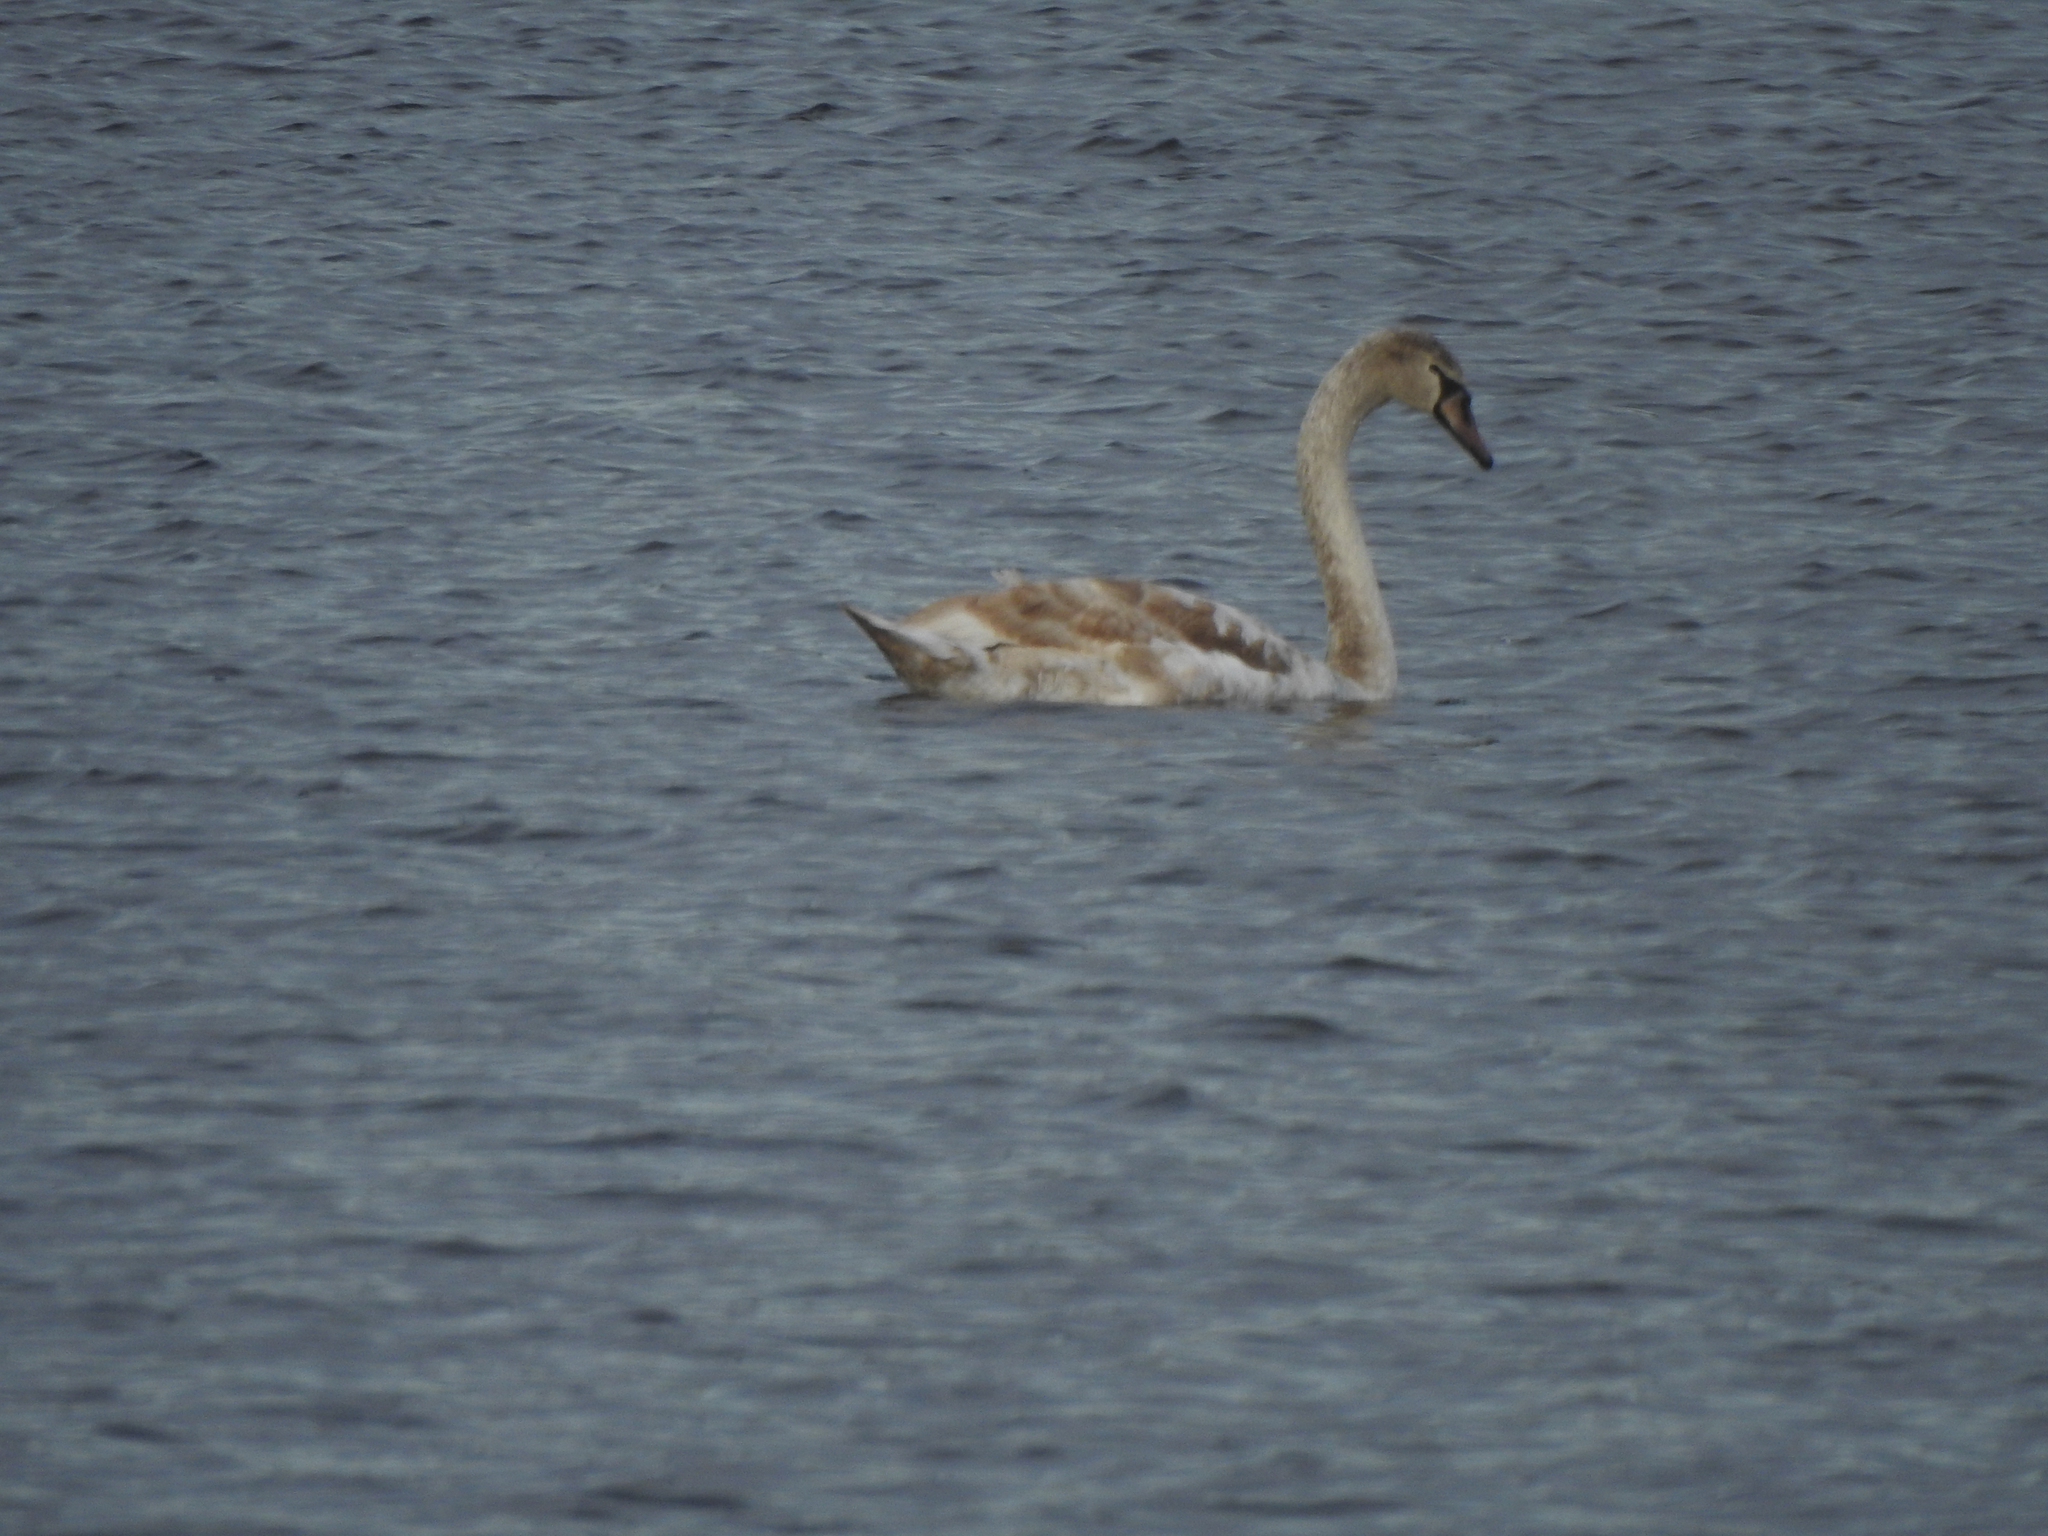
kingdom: Animalia
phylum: Chordata
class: Aves
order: Anseriformes
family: Anatidae
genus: Cygnus
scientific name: Cygnus olor
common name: Mute swan
